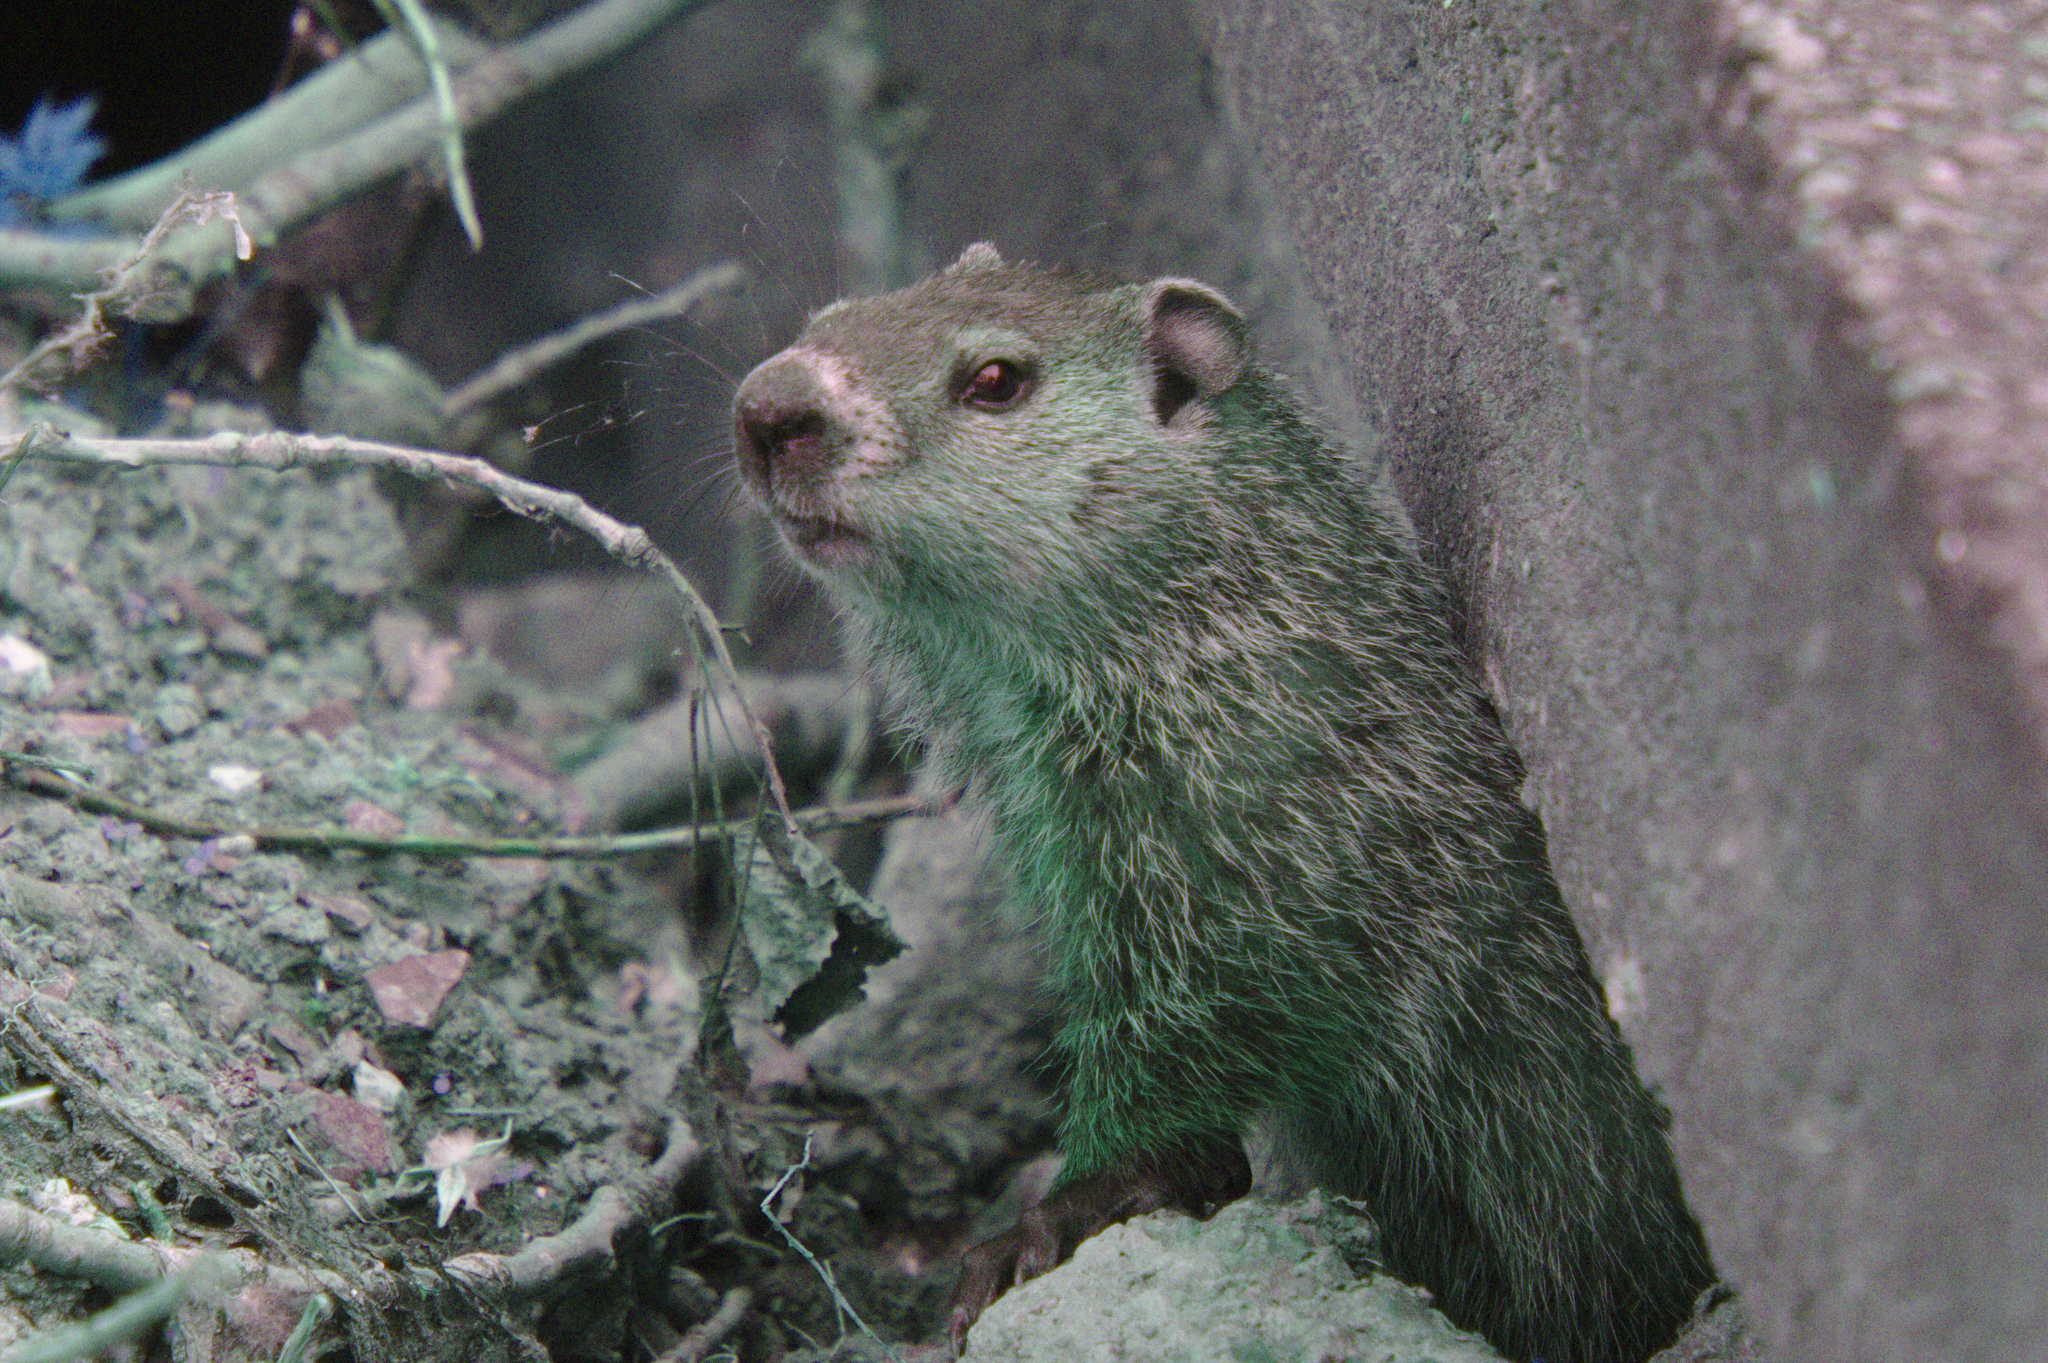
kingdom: Animalia
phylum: Chordata
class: Mammalia
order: Rodentia
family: Sciuridae
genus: Marmota
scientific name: Marmota monax
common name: Groundhog
